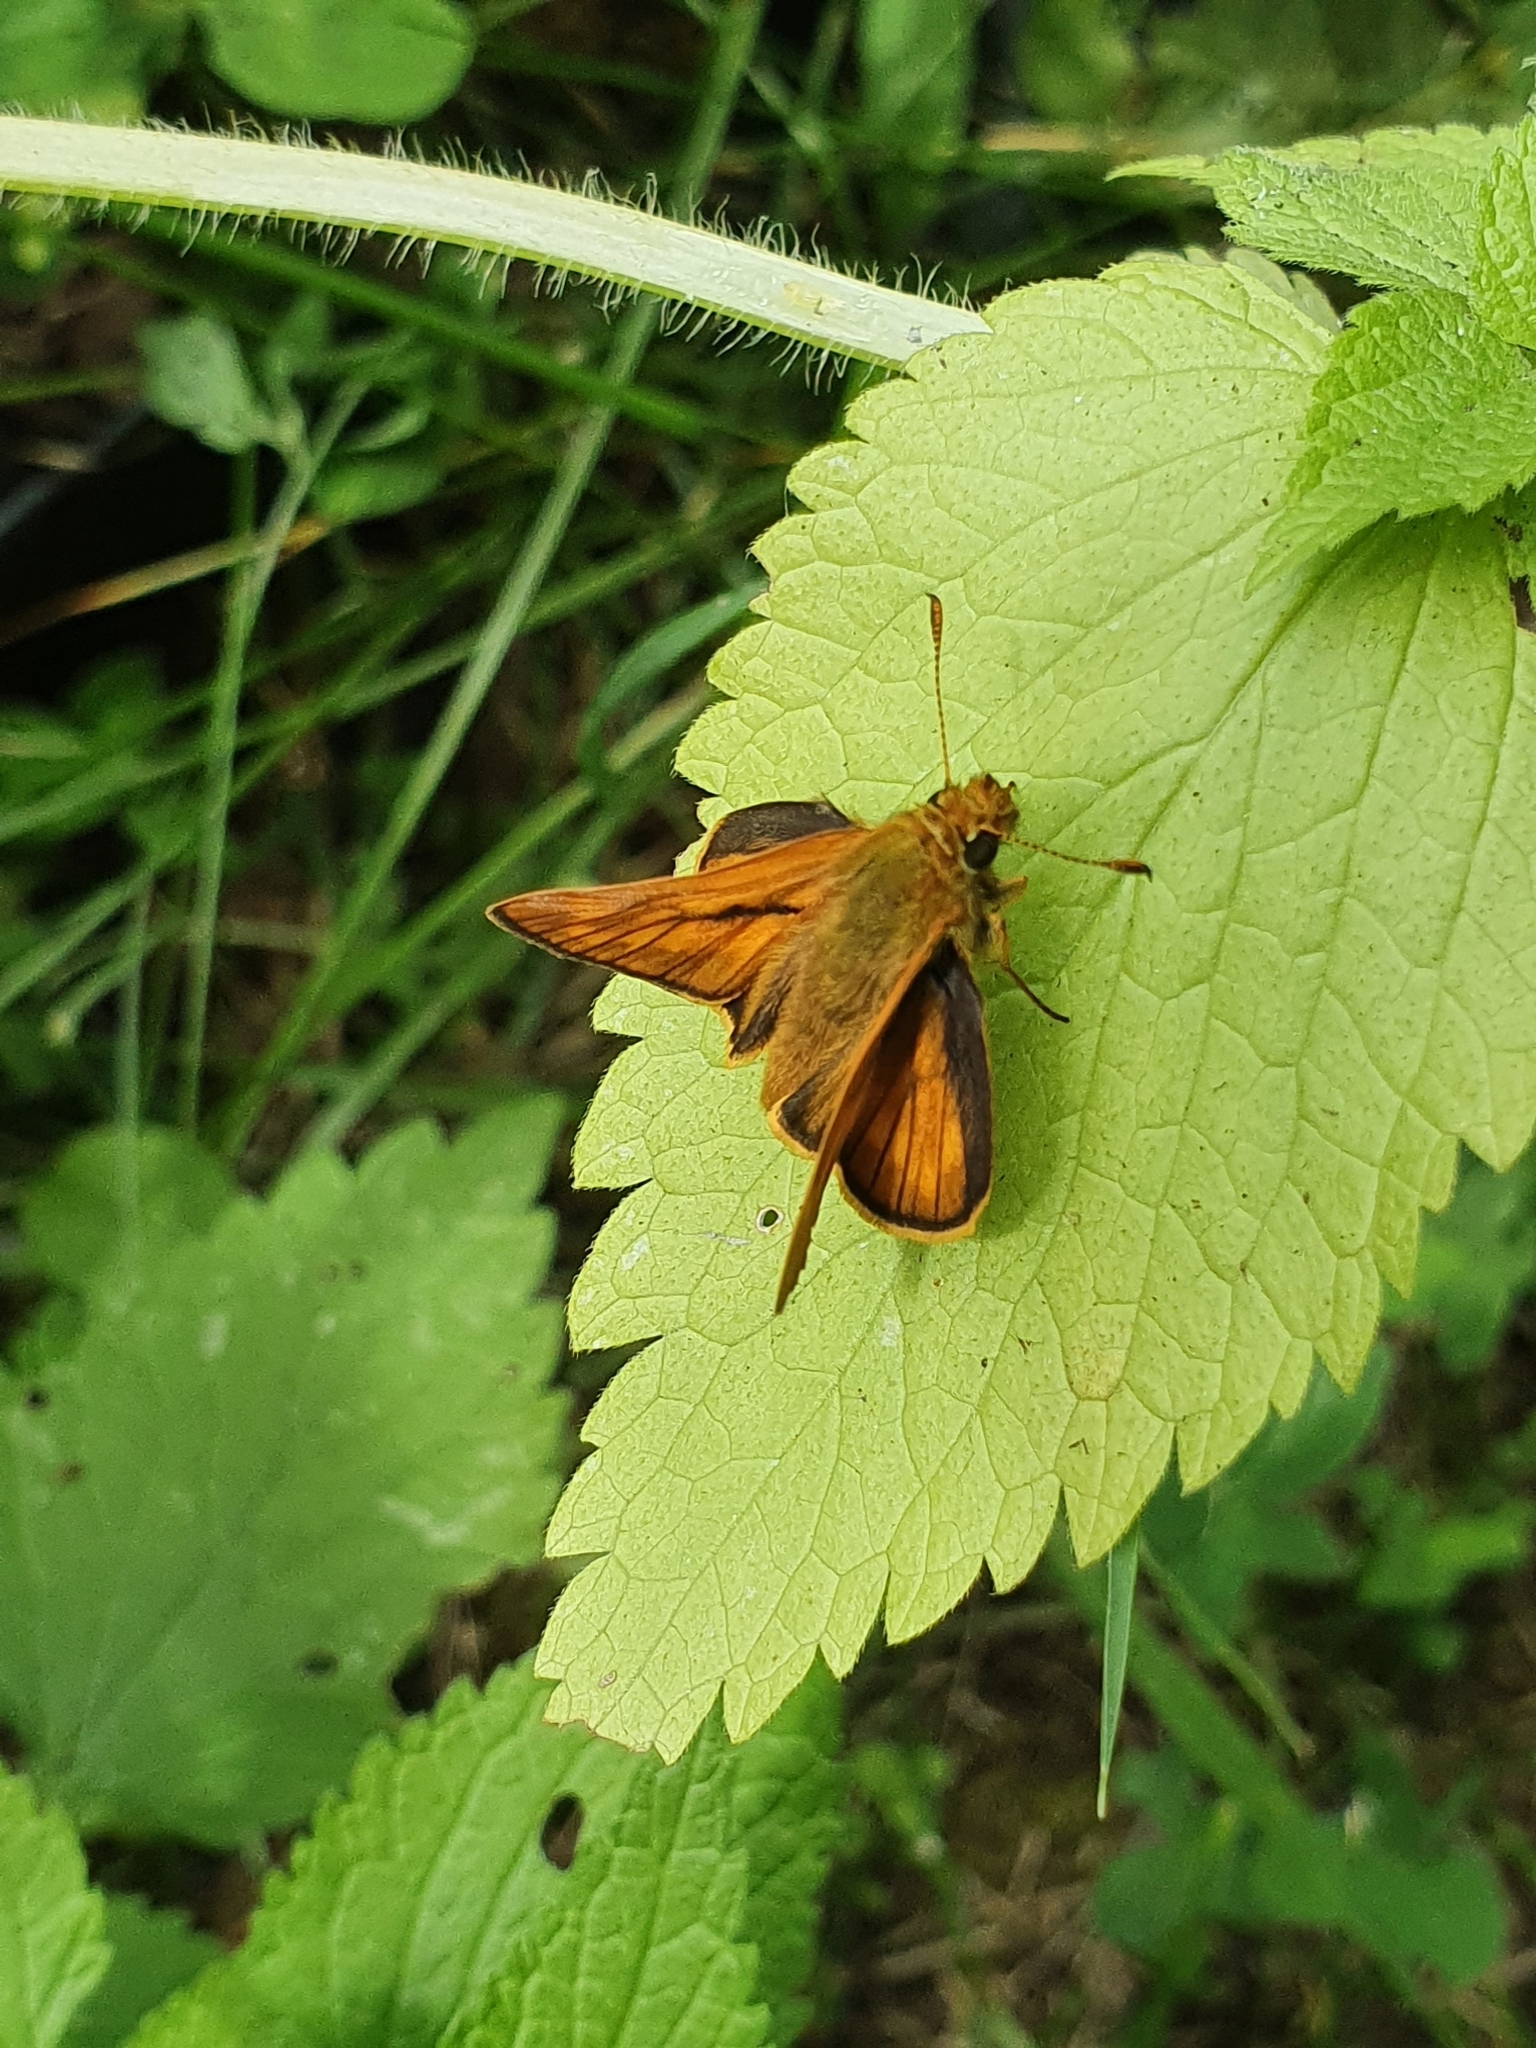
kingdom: Animalia
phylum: Arthropoda
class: Insecta
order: Lepidoptera
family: Hesperiidae
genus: Ochlodes
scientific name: Ochlodes venata
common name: Large skipper
